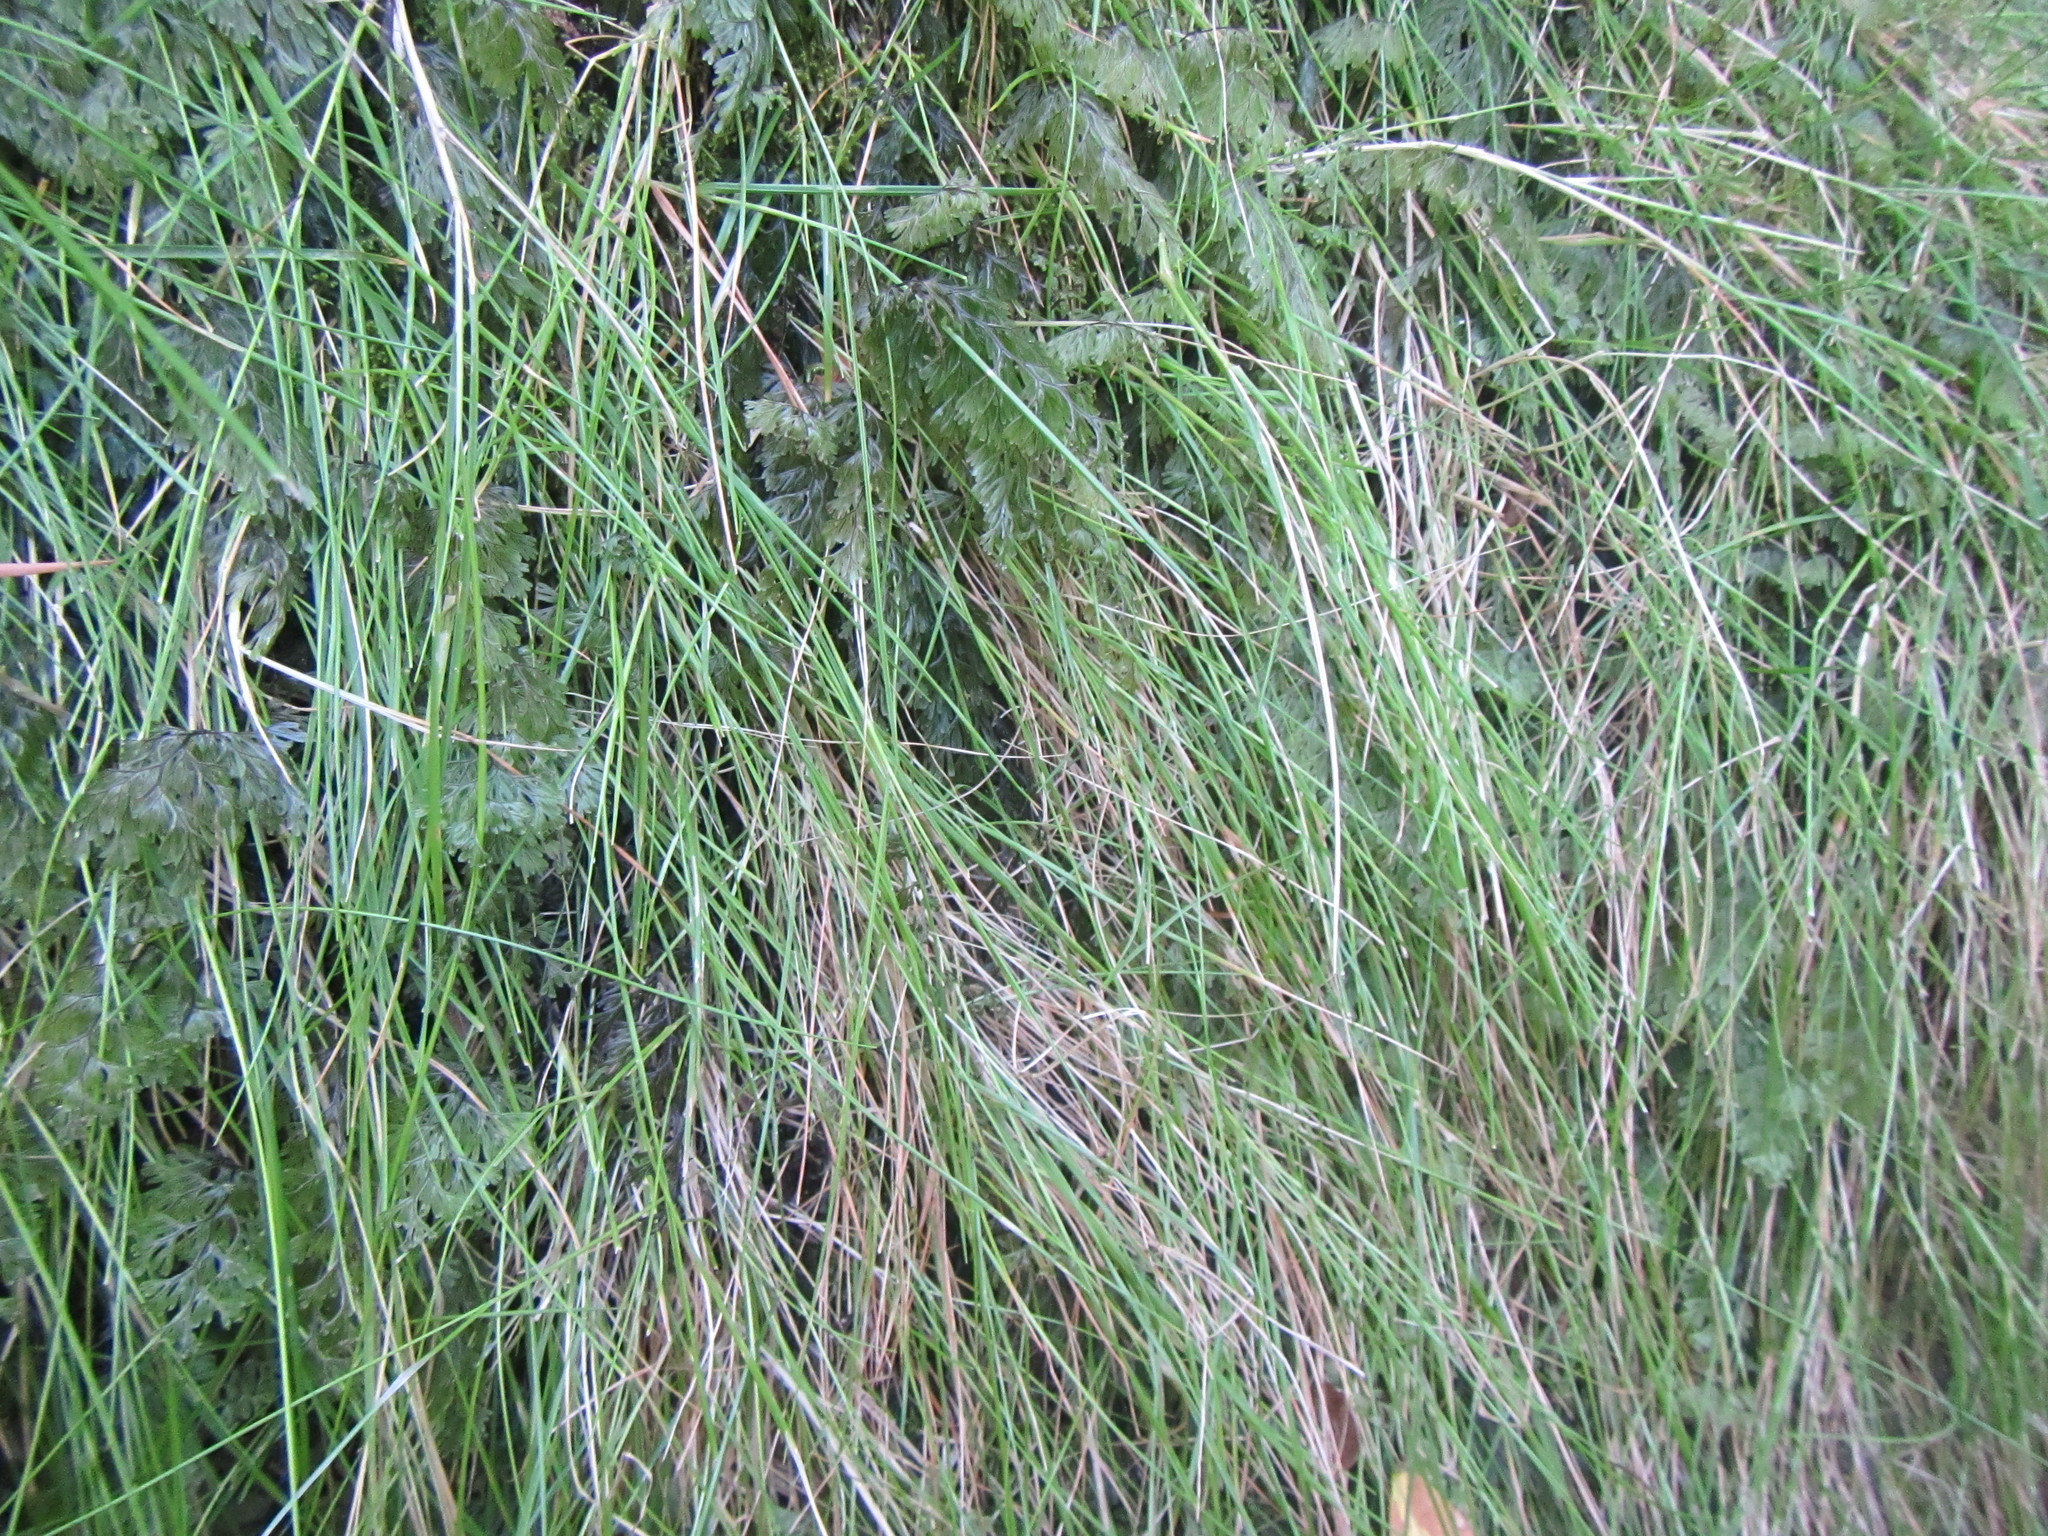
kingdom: Plantae
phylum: Tracheophyta
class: Liliopsida
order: Poales
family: Poaceae
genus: Anthoxanthum
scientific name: Anthoxanthum tongo
